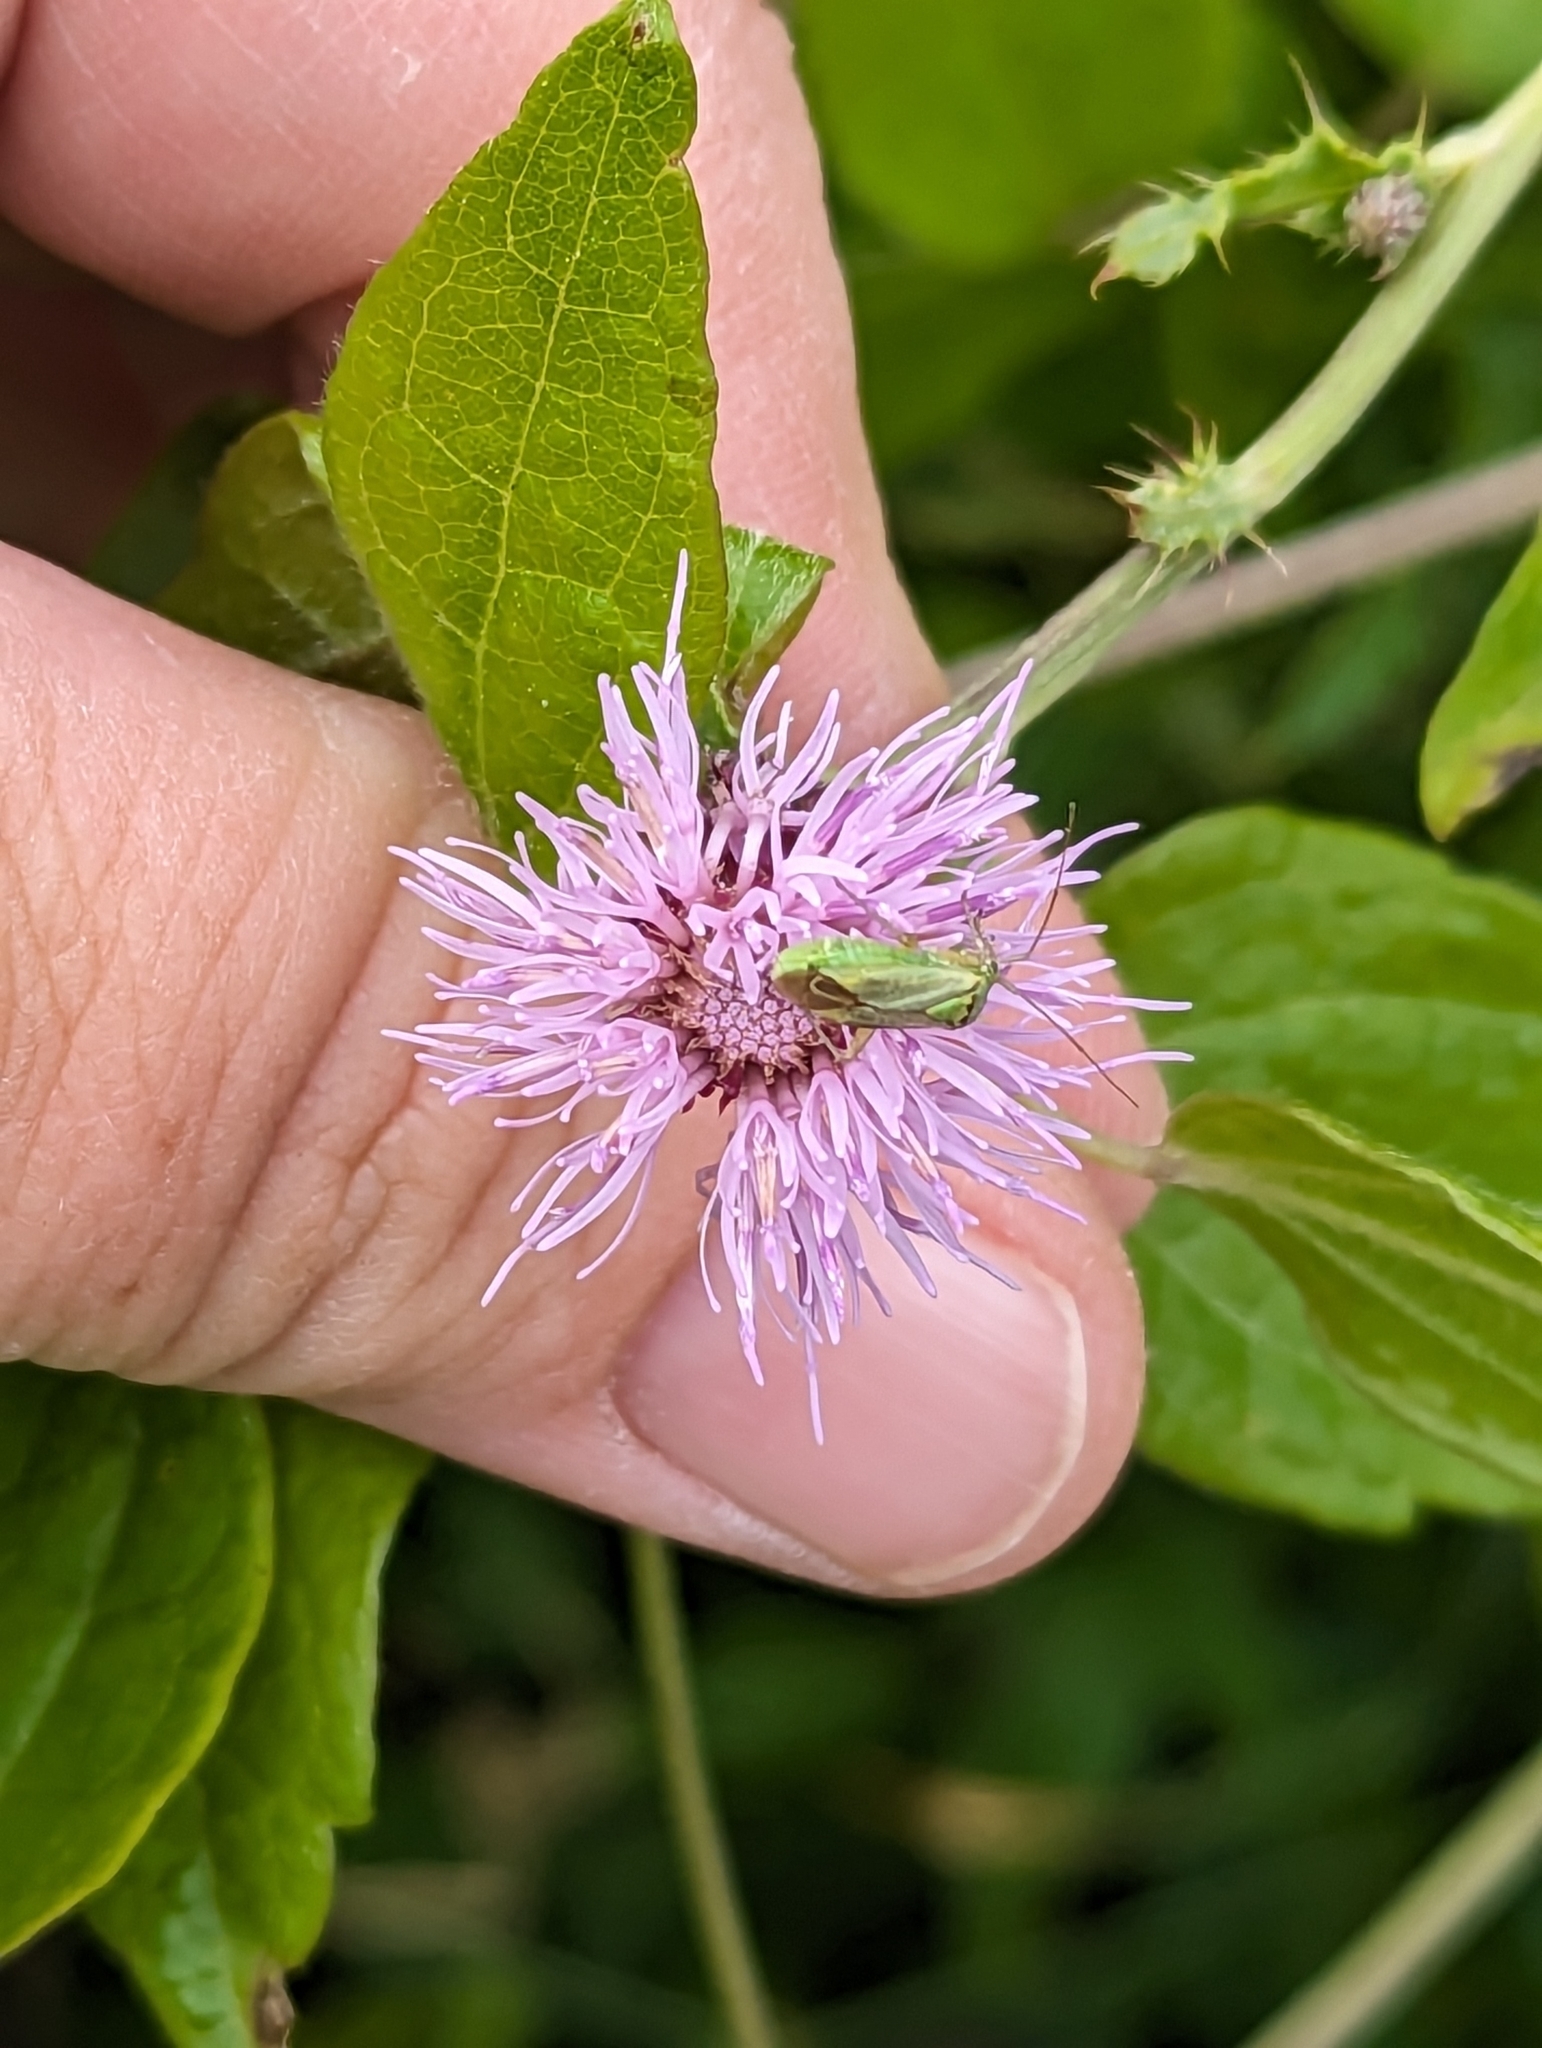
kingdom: Animalia
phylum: Arthropoda
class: Insecta
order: Hemiptera
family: Miridae
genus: Closterotomus
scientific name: Closterotomus norvegicus
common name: Plant bug
